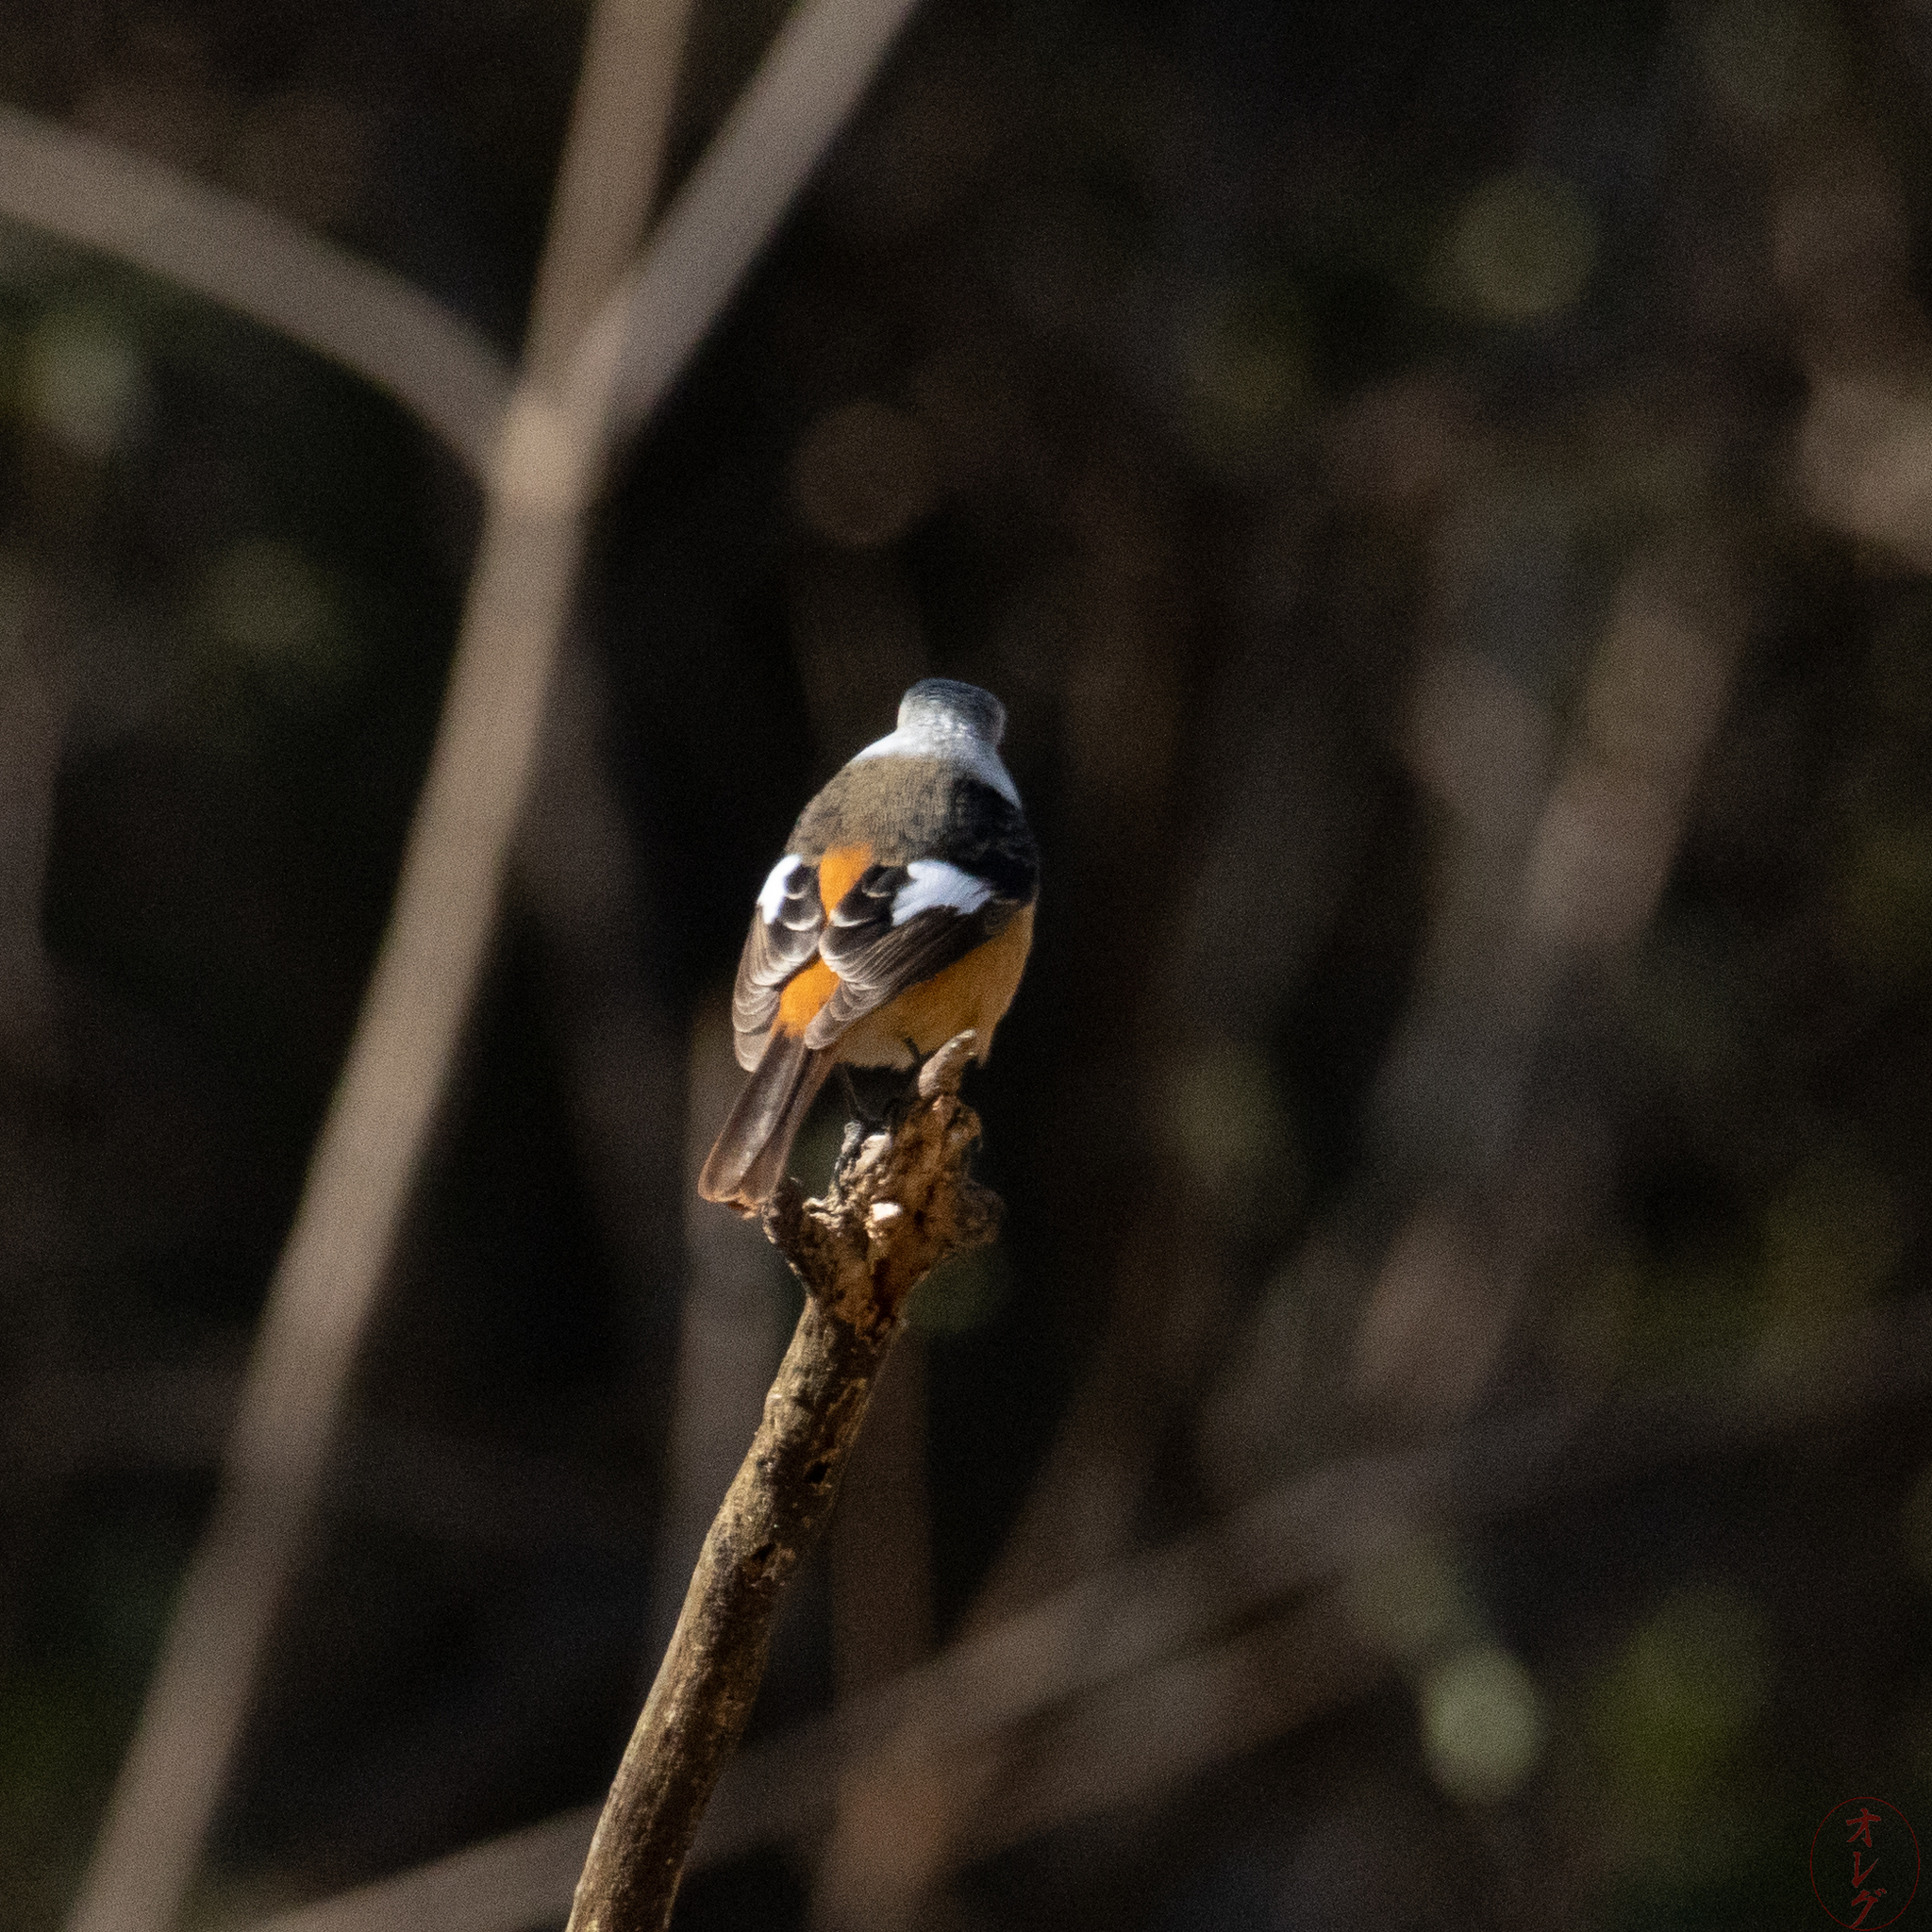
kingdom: Animalia
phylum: Chordata
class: Aves
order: Passeriformes
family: Muscicapidae
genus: Phoenicurus
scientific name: Phoenicurus auroreus
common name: Daurian redstart
